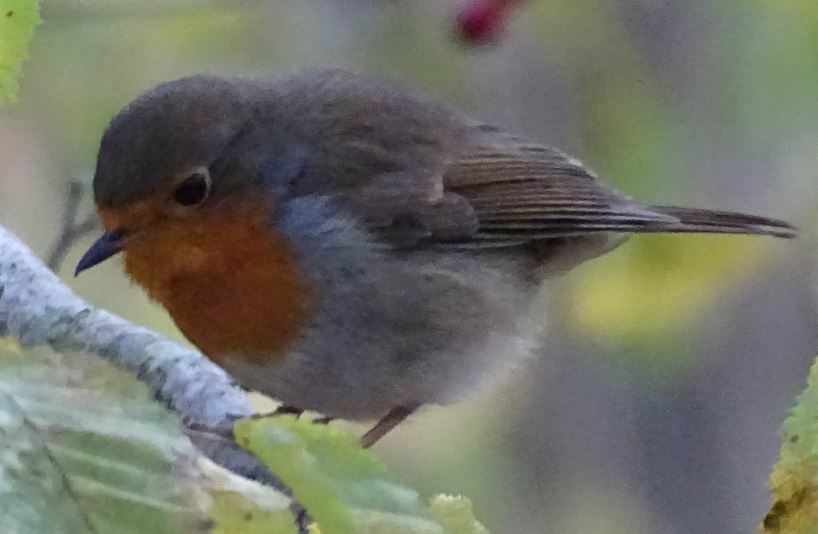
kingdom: Animalia
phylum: Chordata
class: Aves
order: Passeriformes
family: Muscicapidae
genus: Erithacus
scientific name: Erithacus rubecula
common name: European robin
